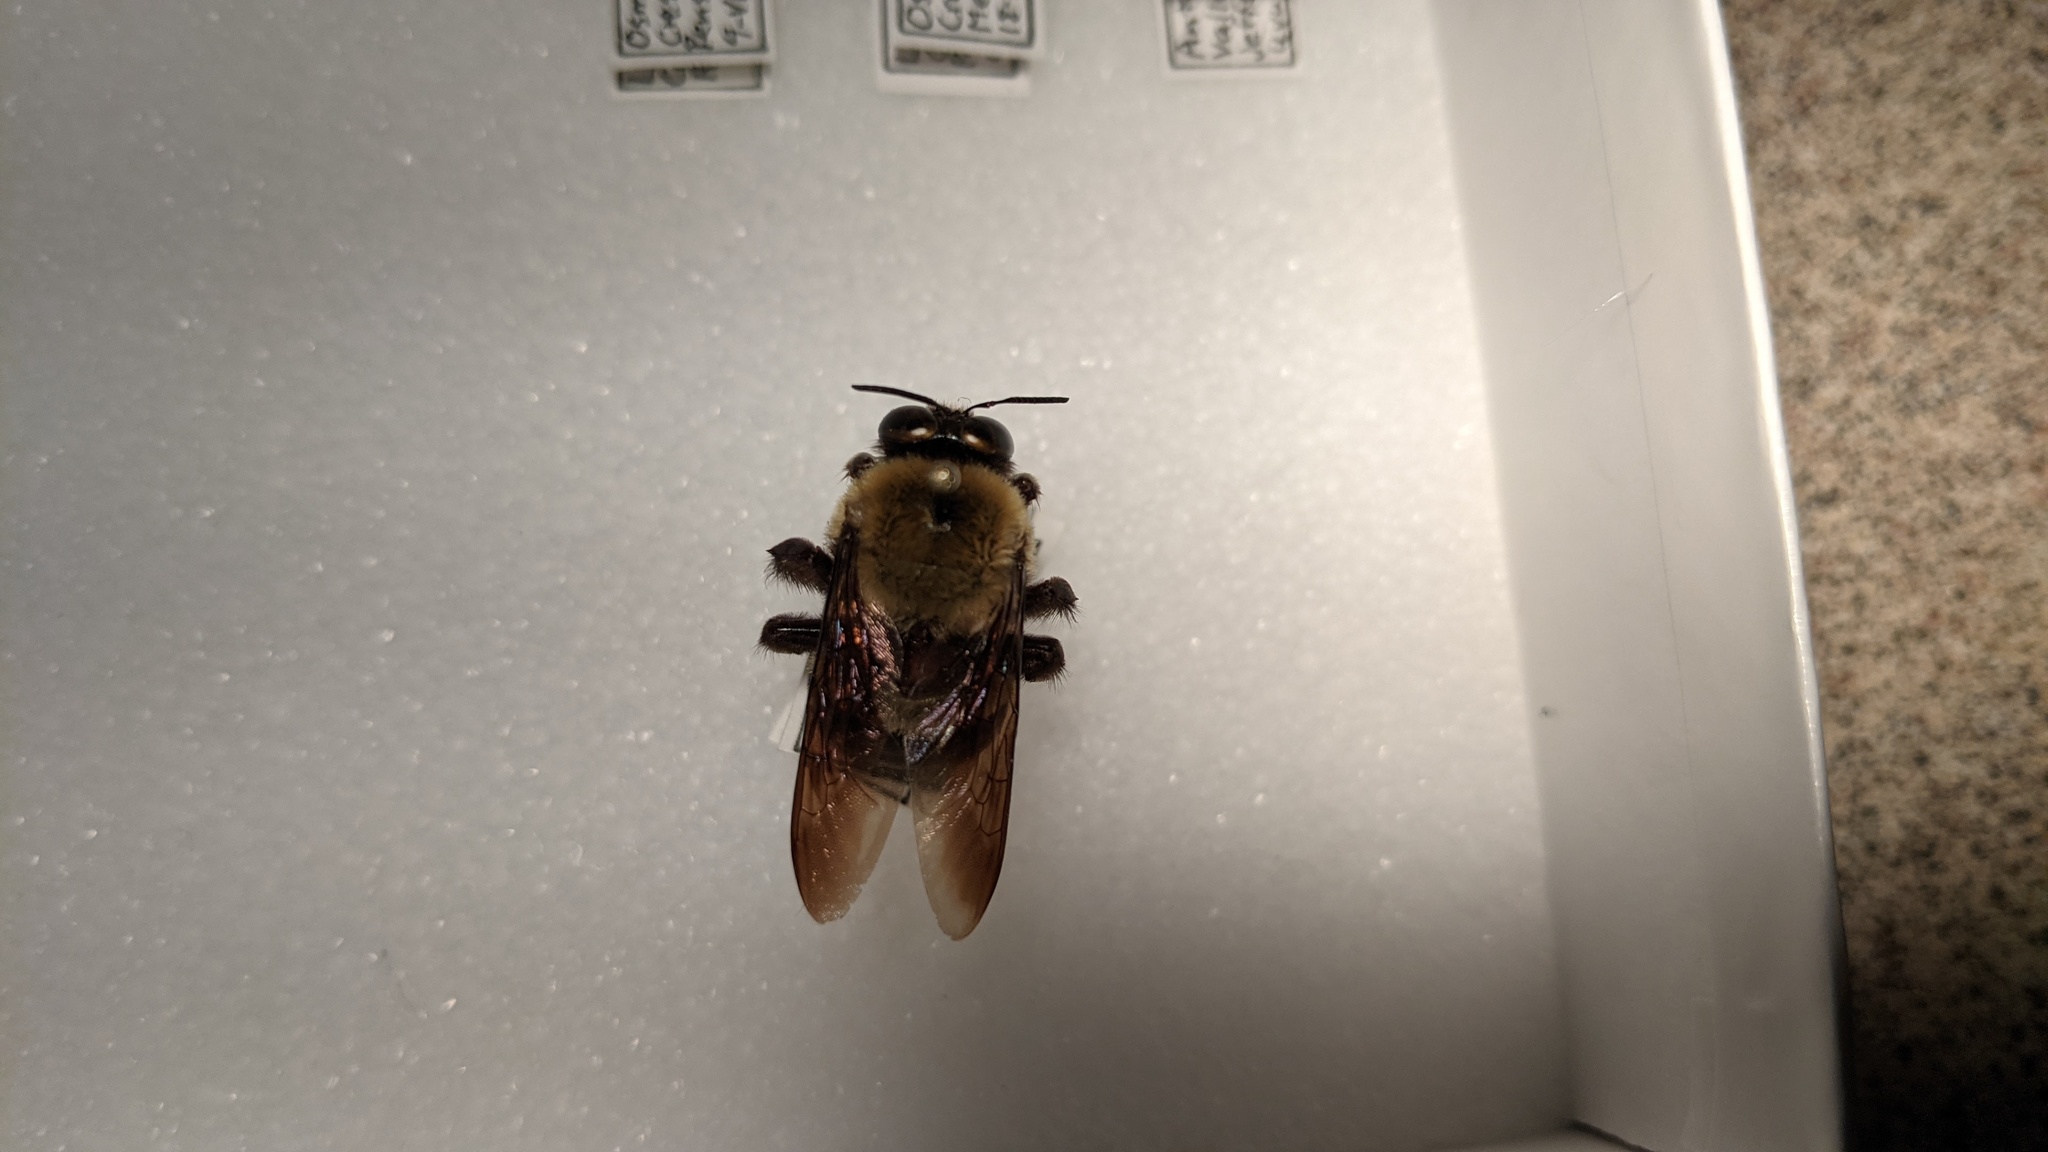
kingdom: Animalia
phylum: Arthropoda
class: Insecta
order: Hymenoptera
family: Apidae
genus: Xylocopa
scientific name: Xylocopa virginica
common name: Carpenter bee
